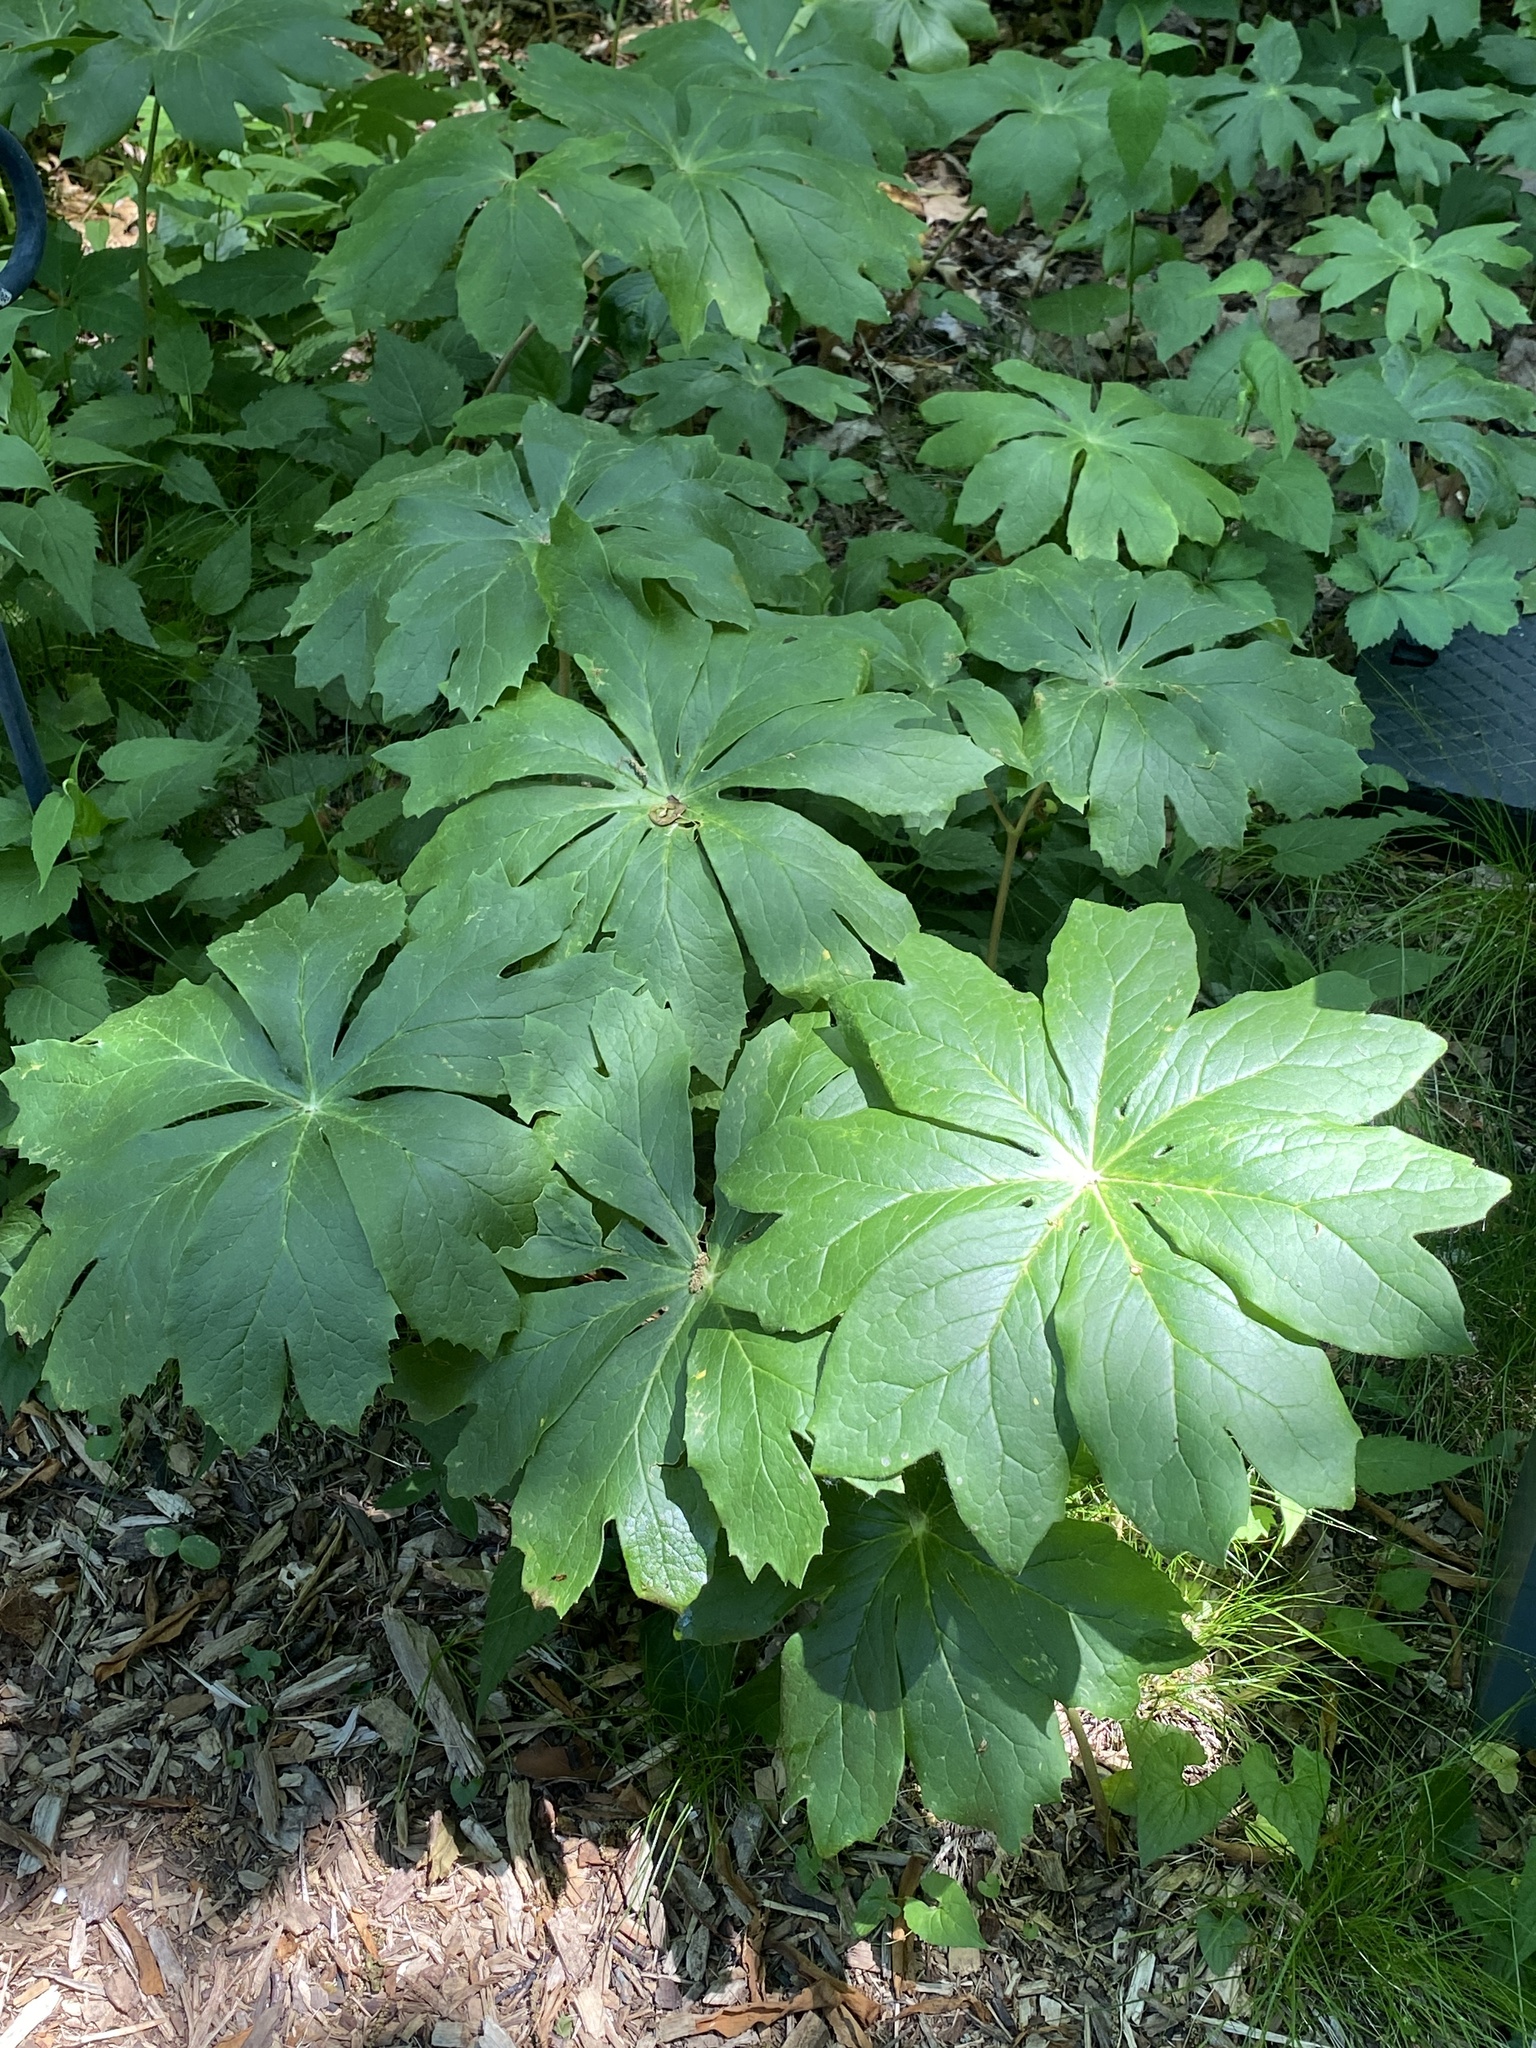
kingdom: Plantae
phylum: Tracheophyta
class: Magnoliopsida
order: Ranunculales
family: Berberidaceae
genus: Podophyllum
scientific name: Podophyllum peltatum
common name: Wild mandrake
